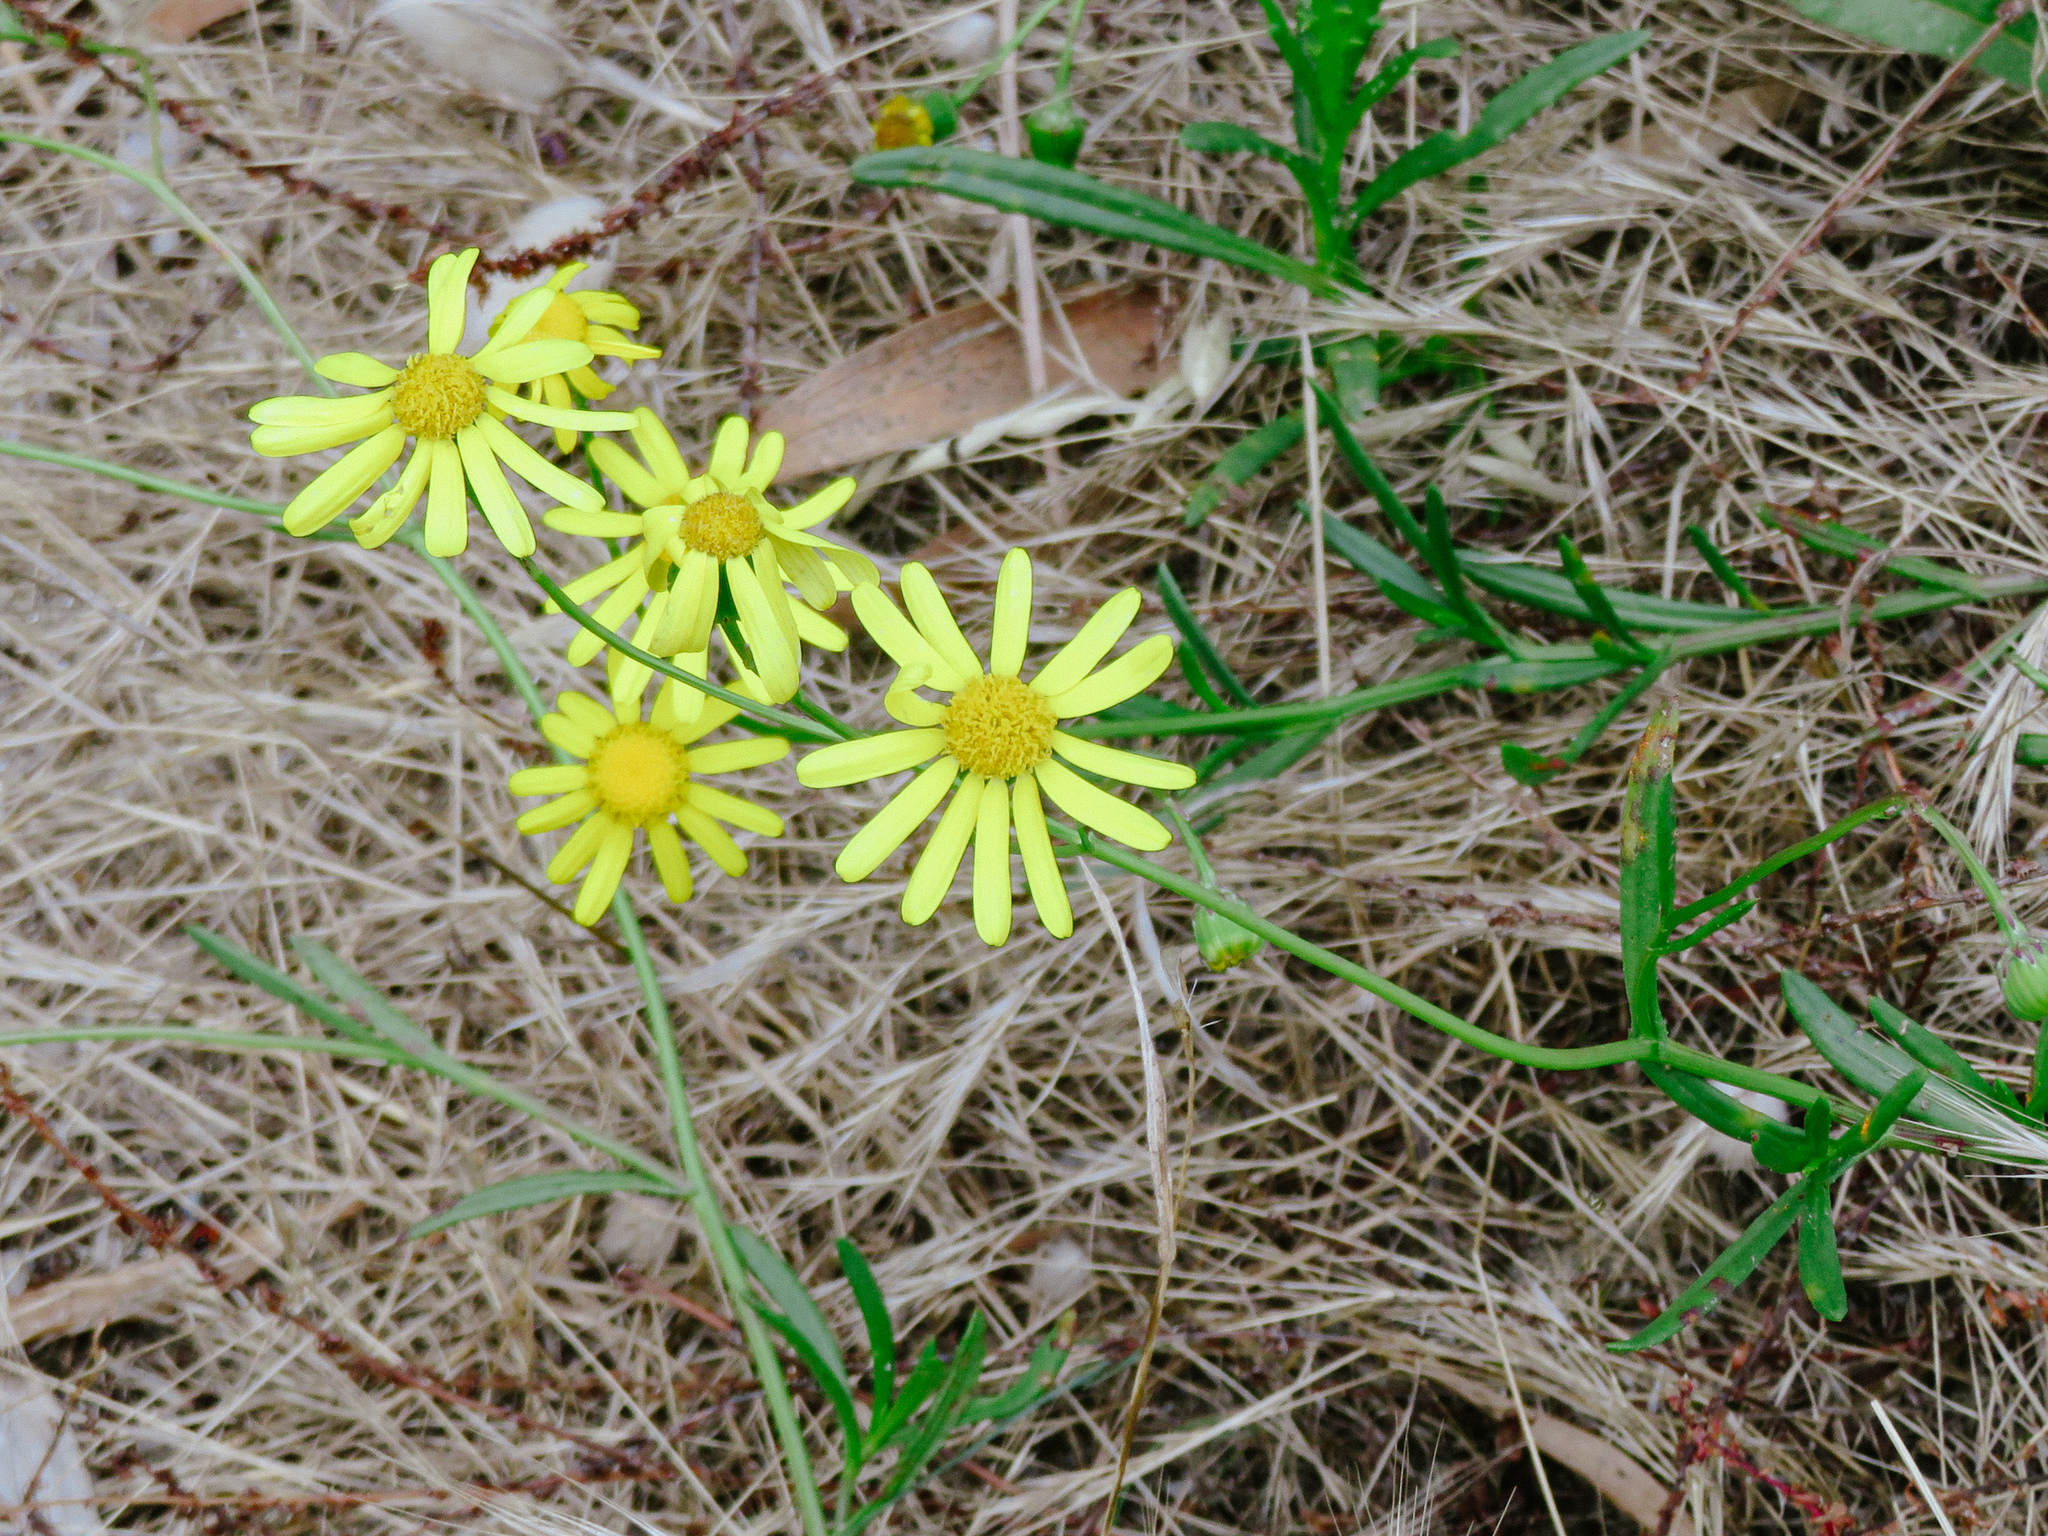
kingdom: Plantae
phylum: Tracheophyta
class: Magnoliopsida
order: Asterales
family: Asteraceae
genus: Senecio
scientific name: Senecio inaequidens
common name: Narrow-leaved ragwort
